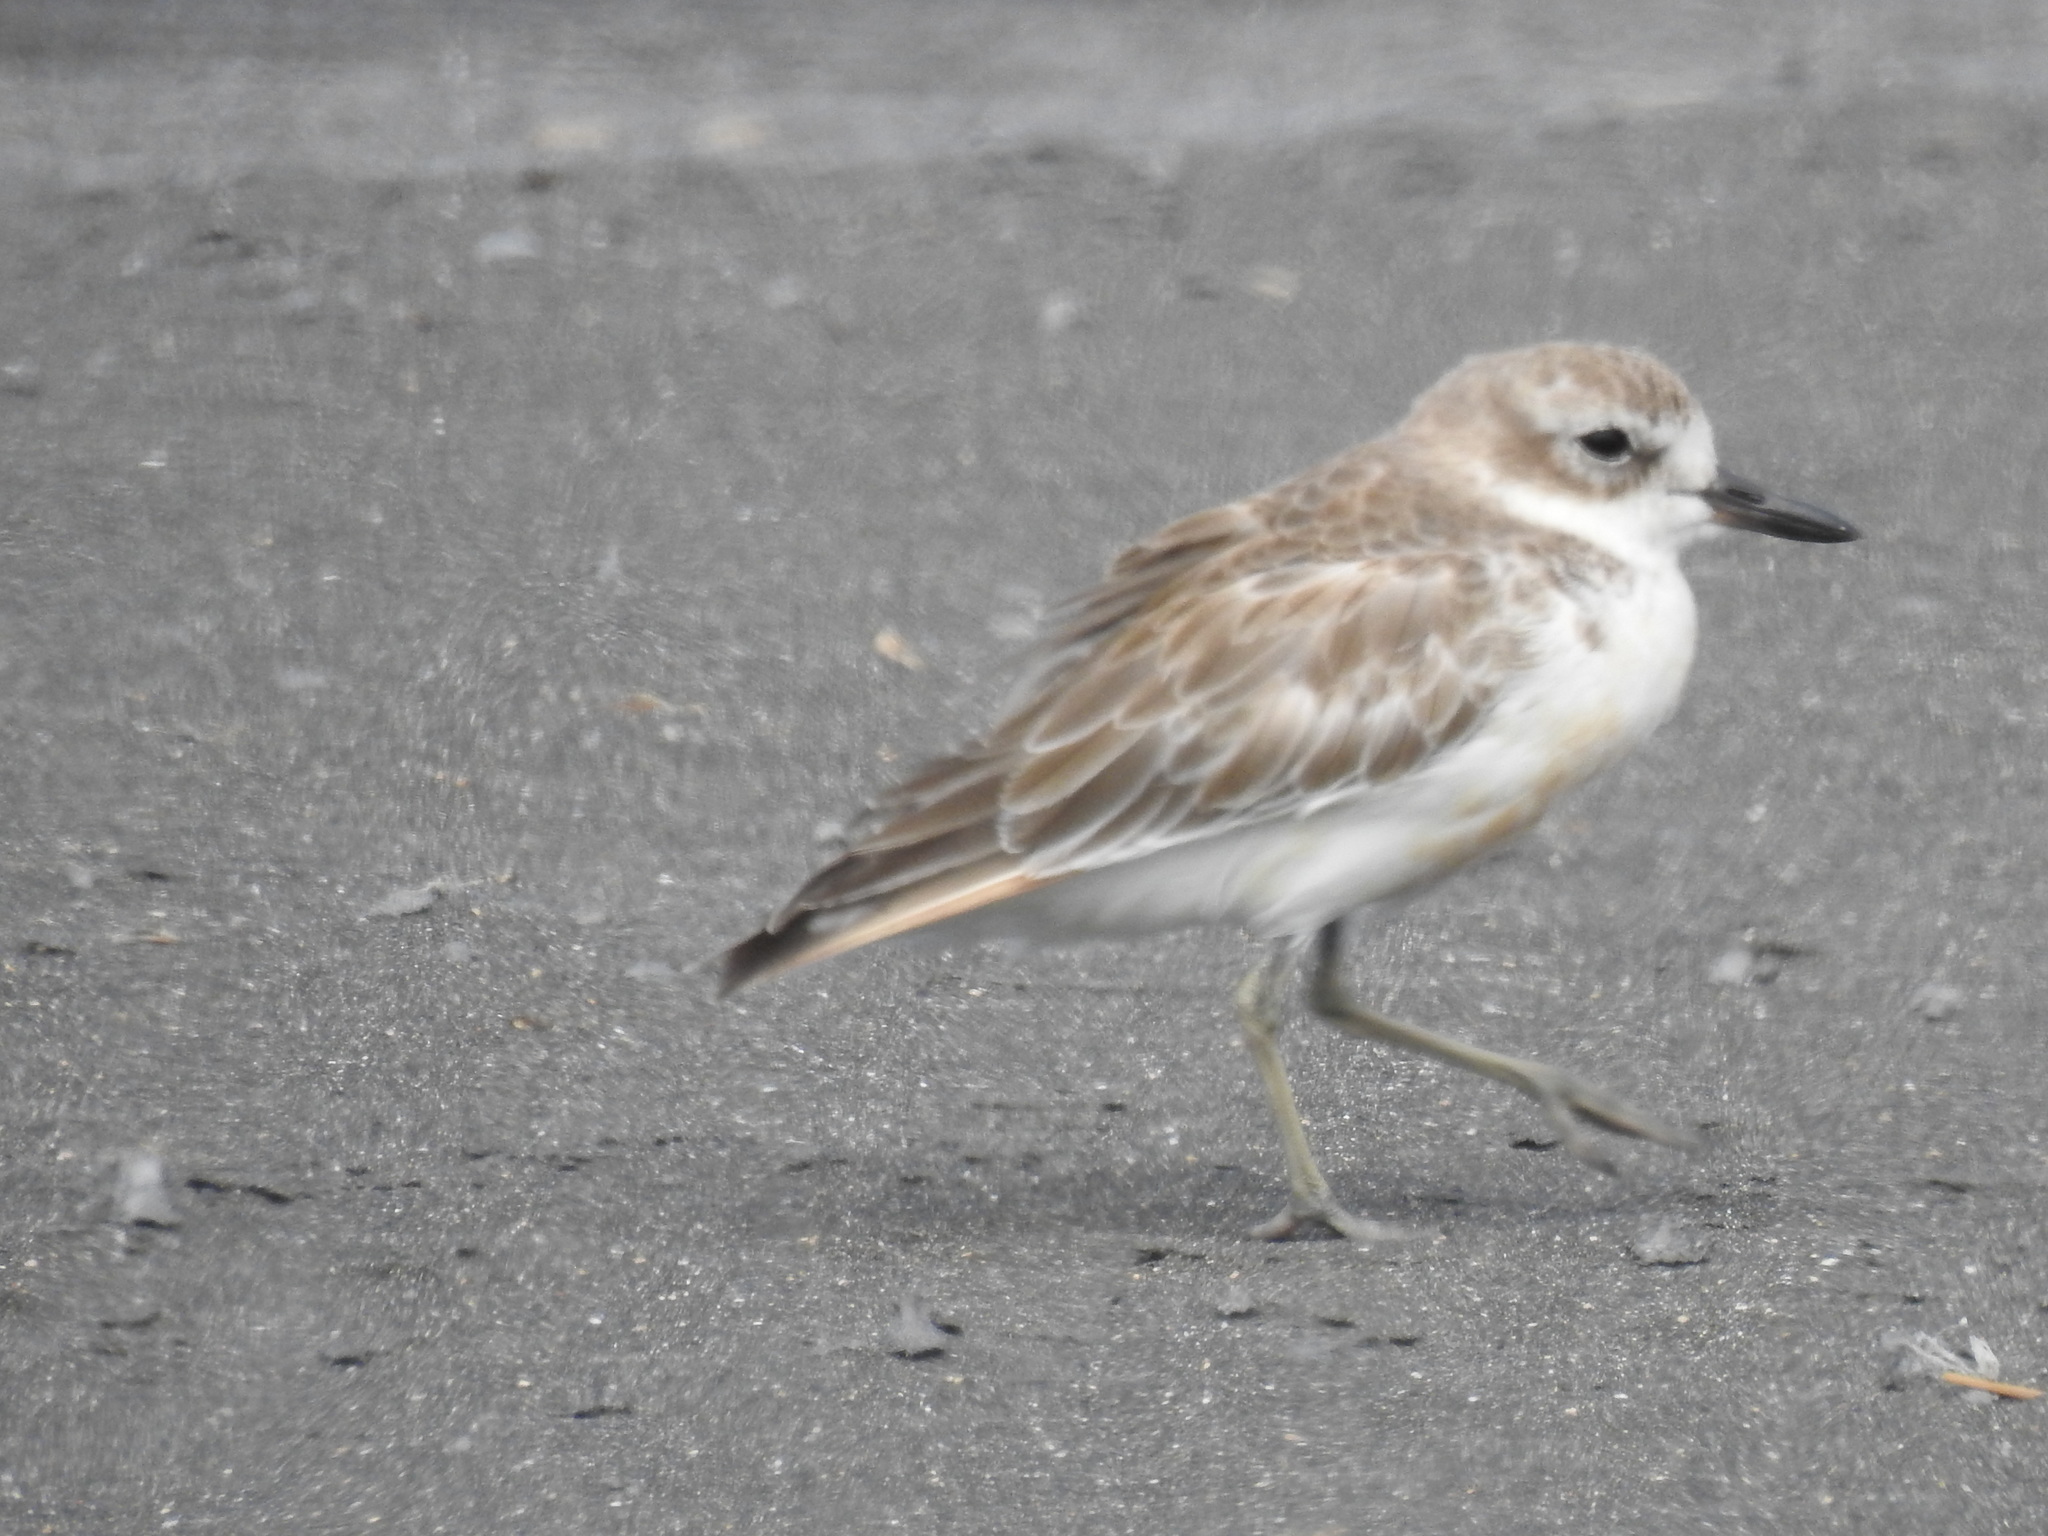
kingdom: Animalia
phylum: Chordata
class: Aves
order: Charadriiformes
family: Charadriidae
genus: Anarhynchus
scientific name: Anarhynchus
